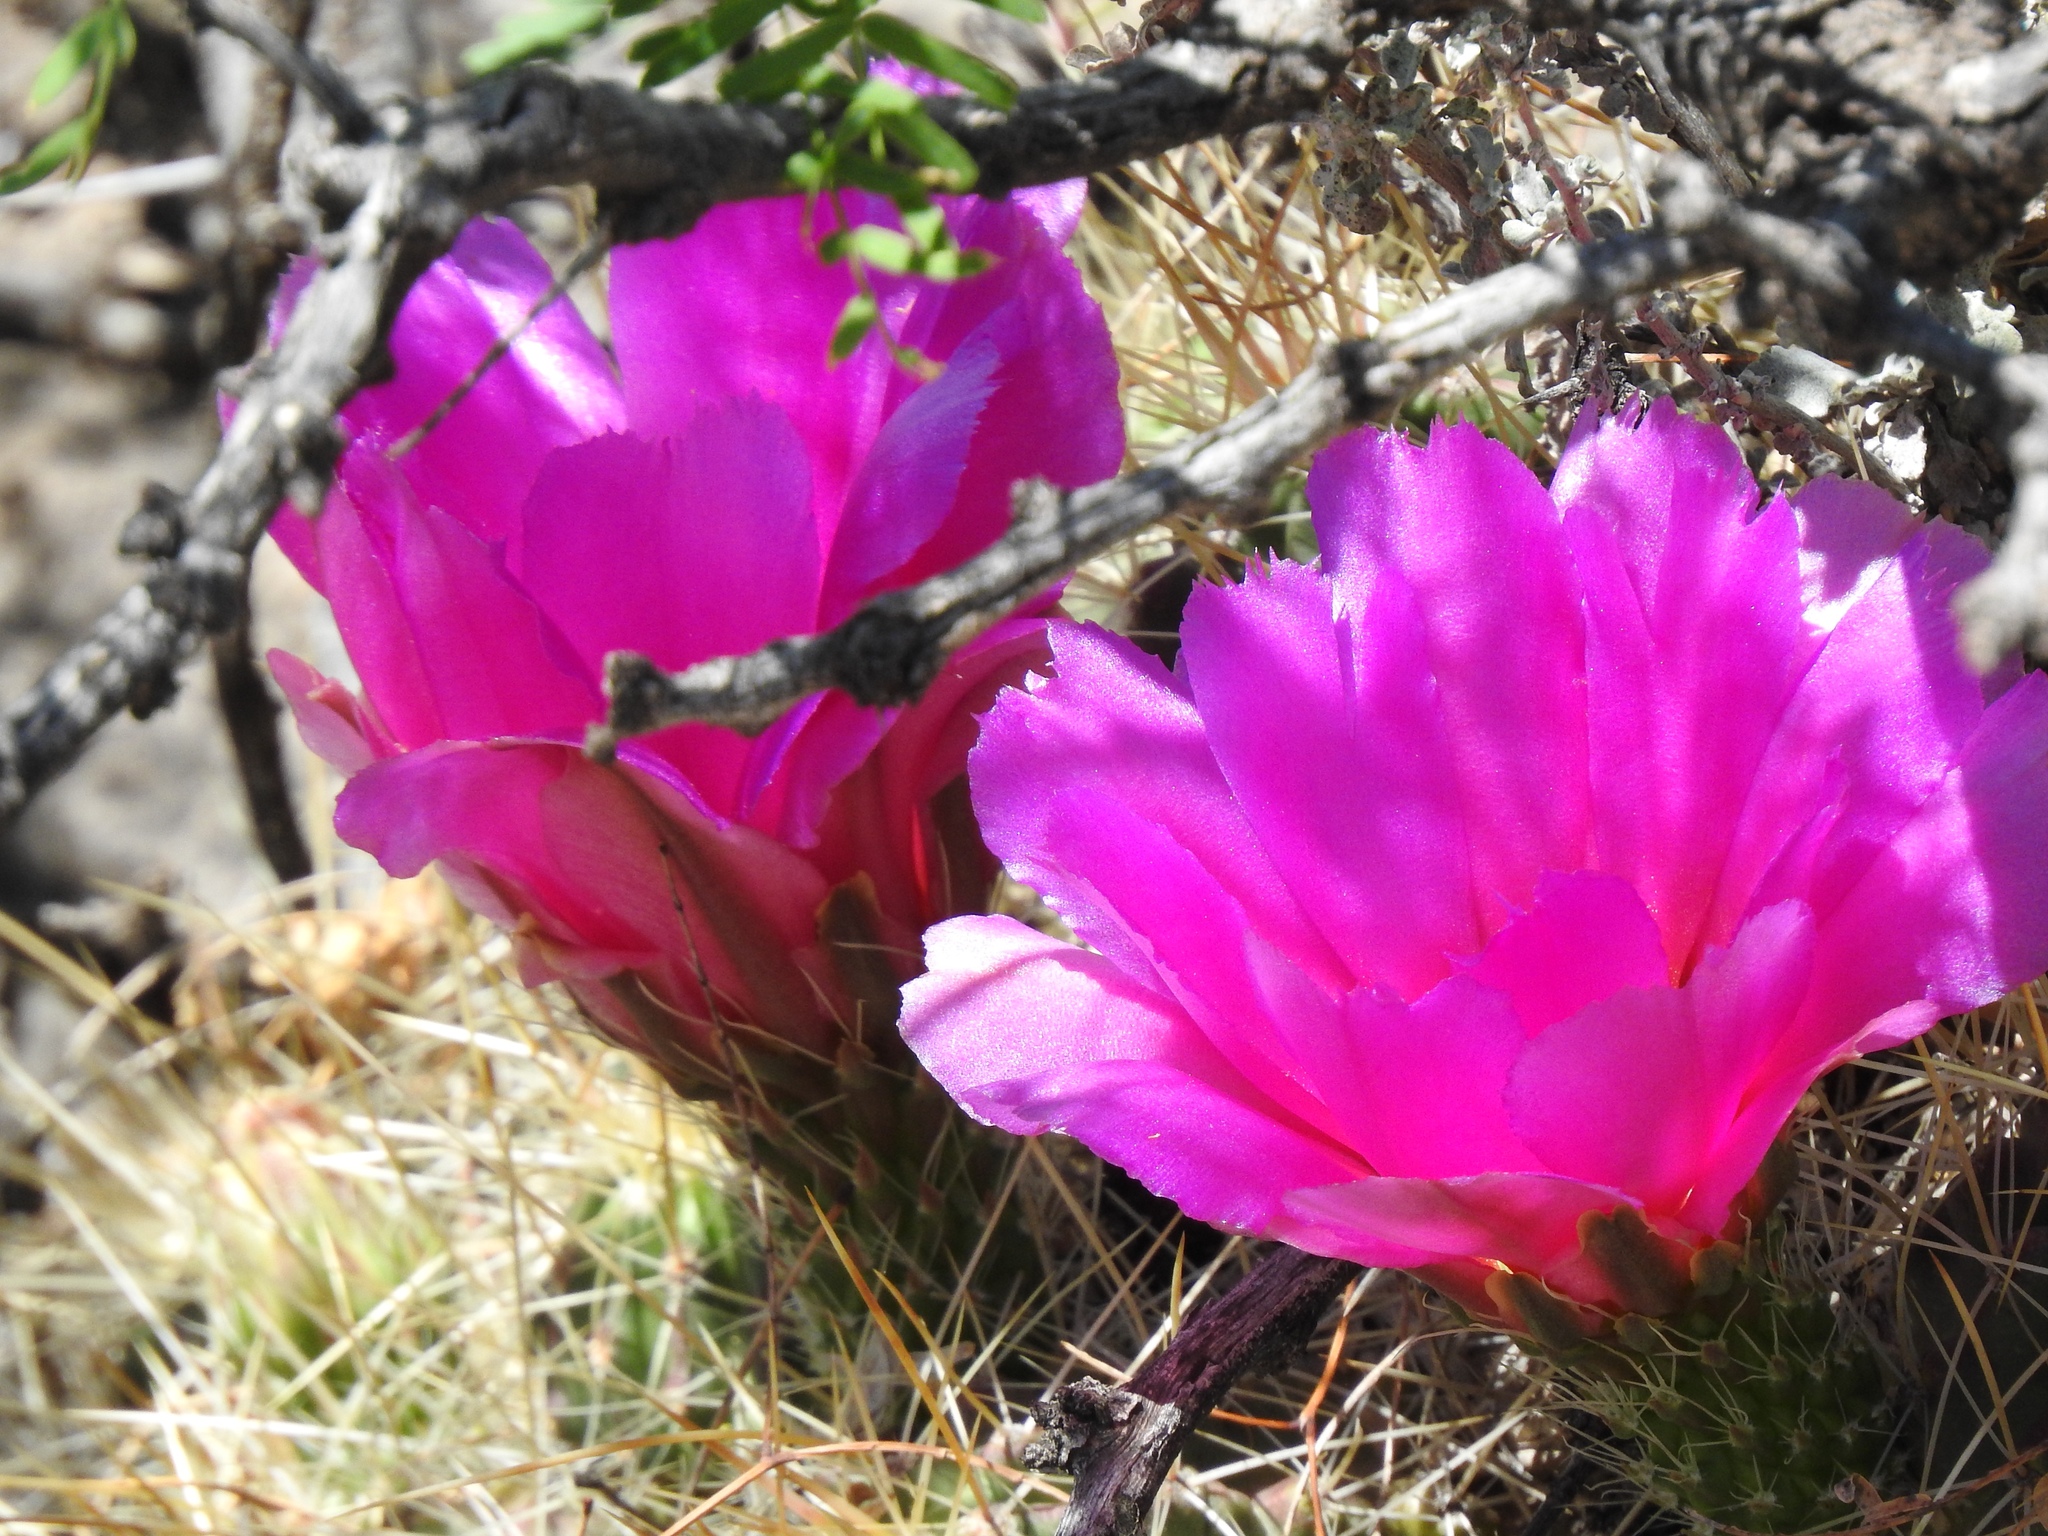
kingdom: Plantae
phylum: Tracheophyta
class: Magnoliopsida
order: Caryophyllales
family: Cactaceae
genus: Echinocereus
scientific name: Echinocereus stramineus
